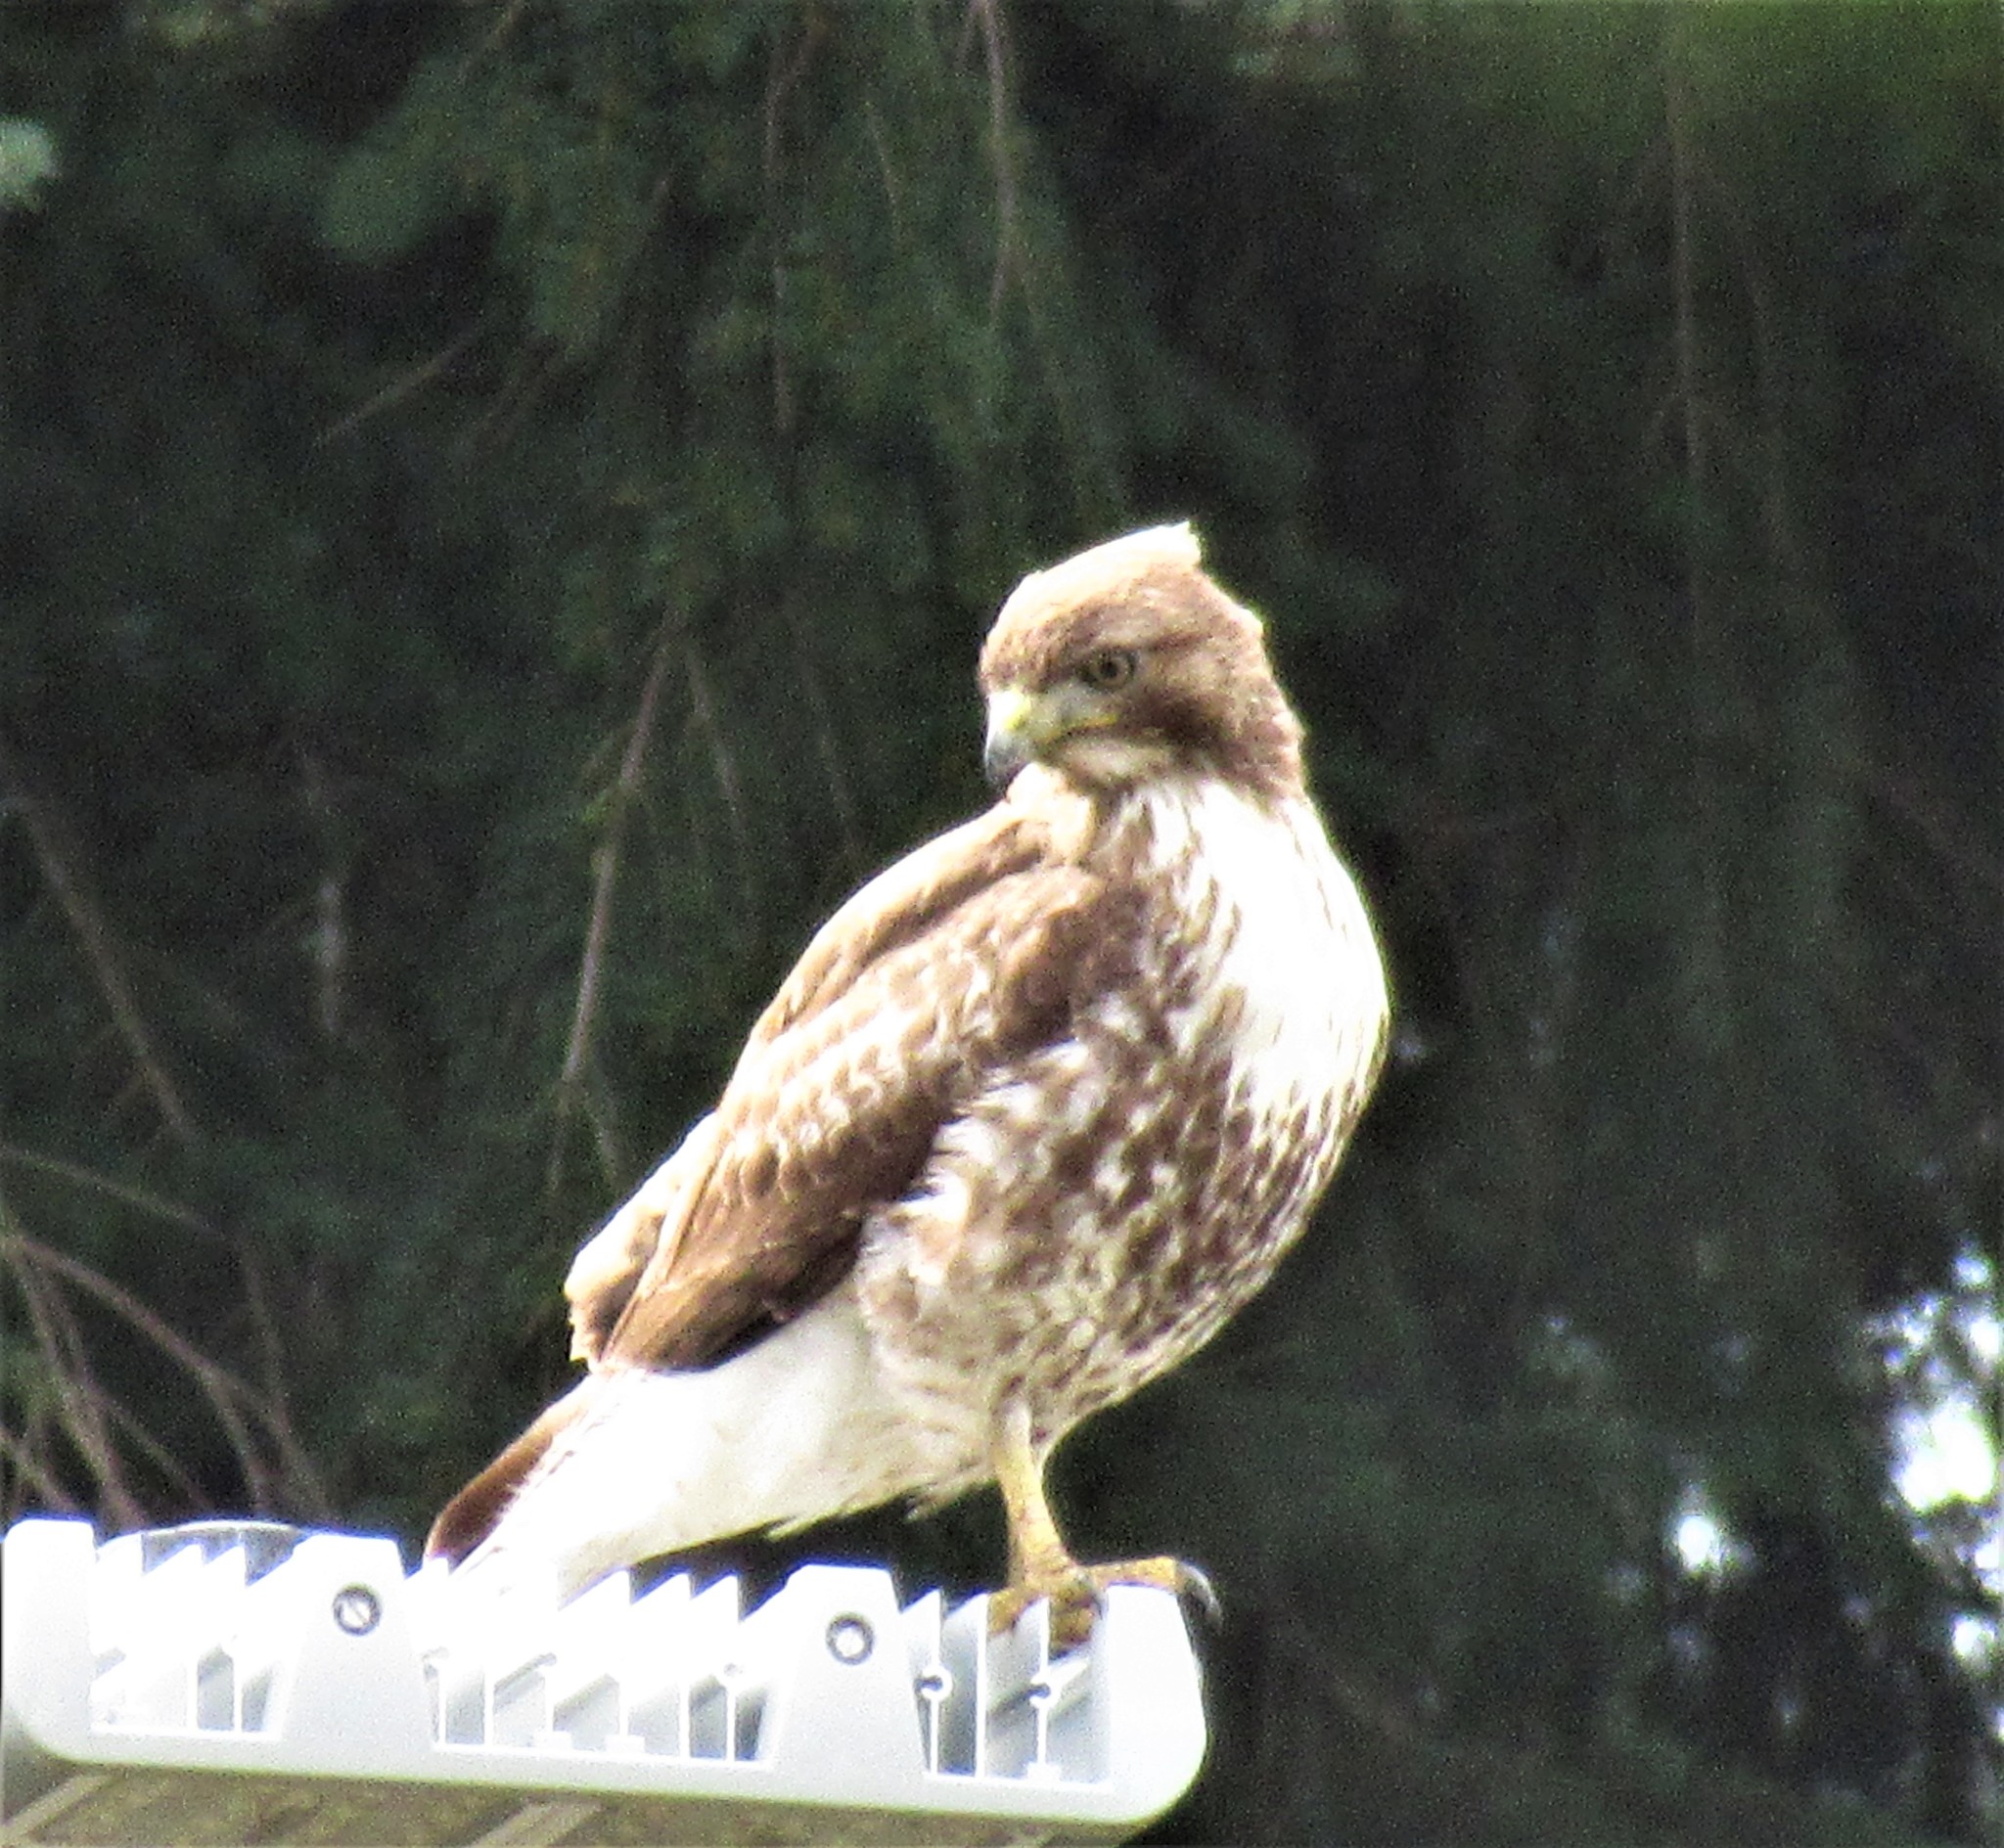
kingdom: Animalia
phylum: Chordata
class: Aves
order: Accipitriformes
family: Accipitridae
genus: Buteo
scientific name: Buteo jamaicensis
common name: Red-tailed hawk
